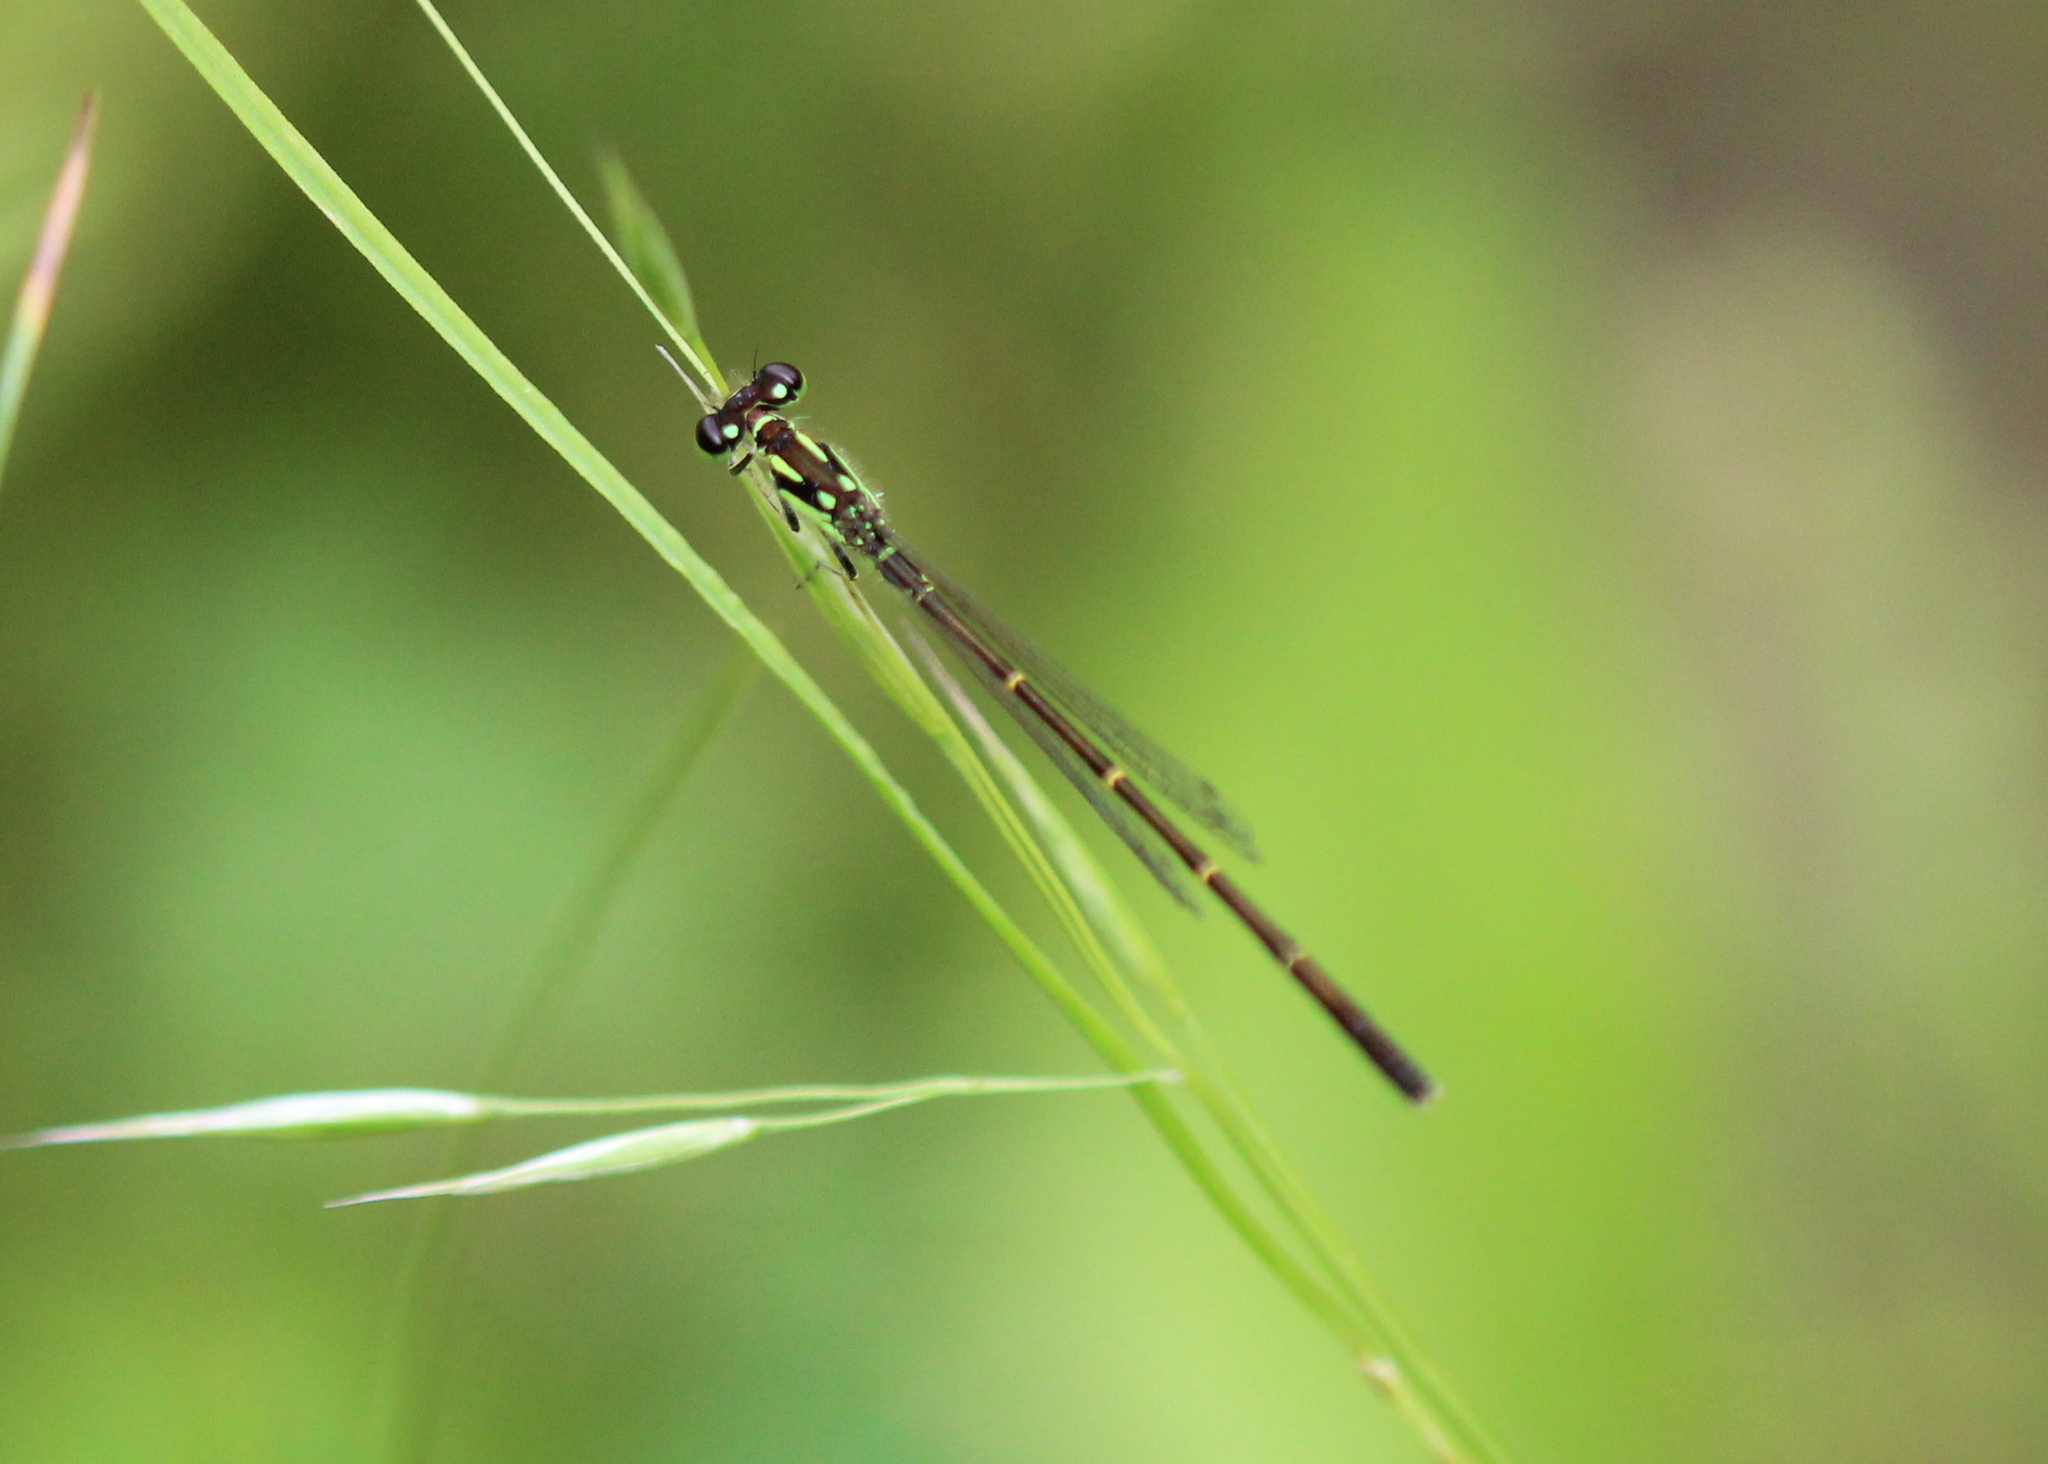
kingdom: Animalia
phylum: Arthropoda
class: Insecta
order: Odonata
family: Coenagrionidae
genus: Ischnura
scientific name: Ischnura posita
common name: Fragile forktail
